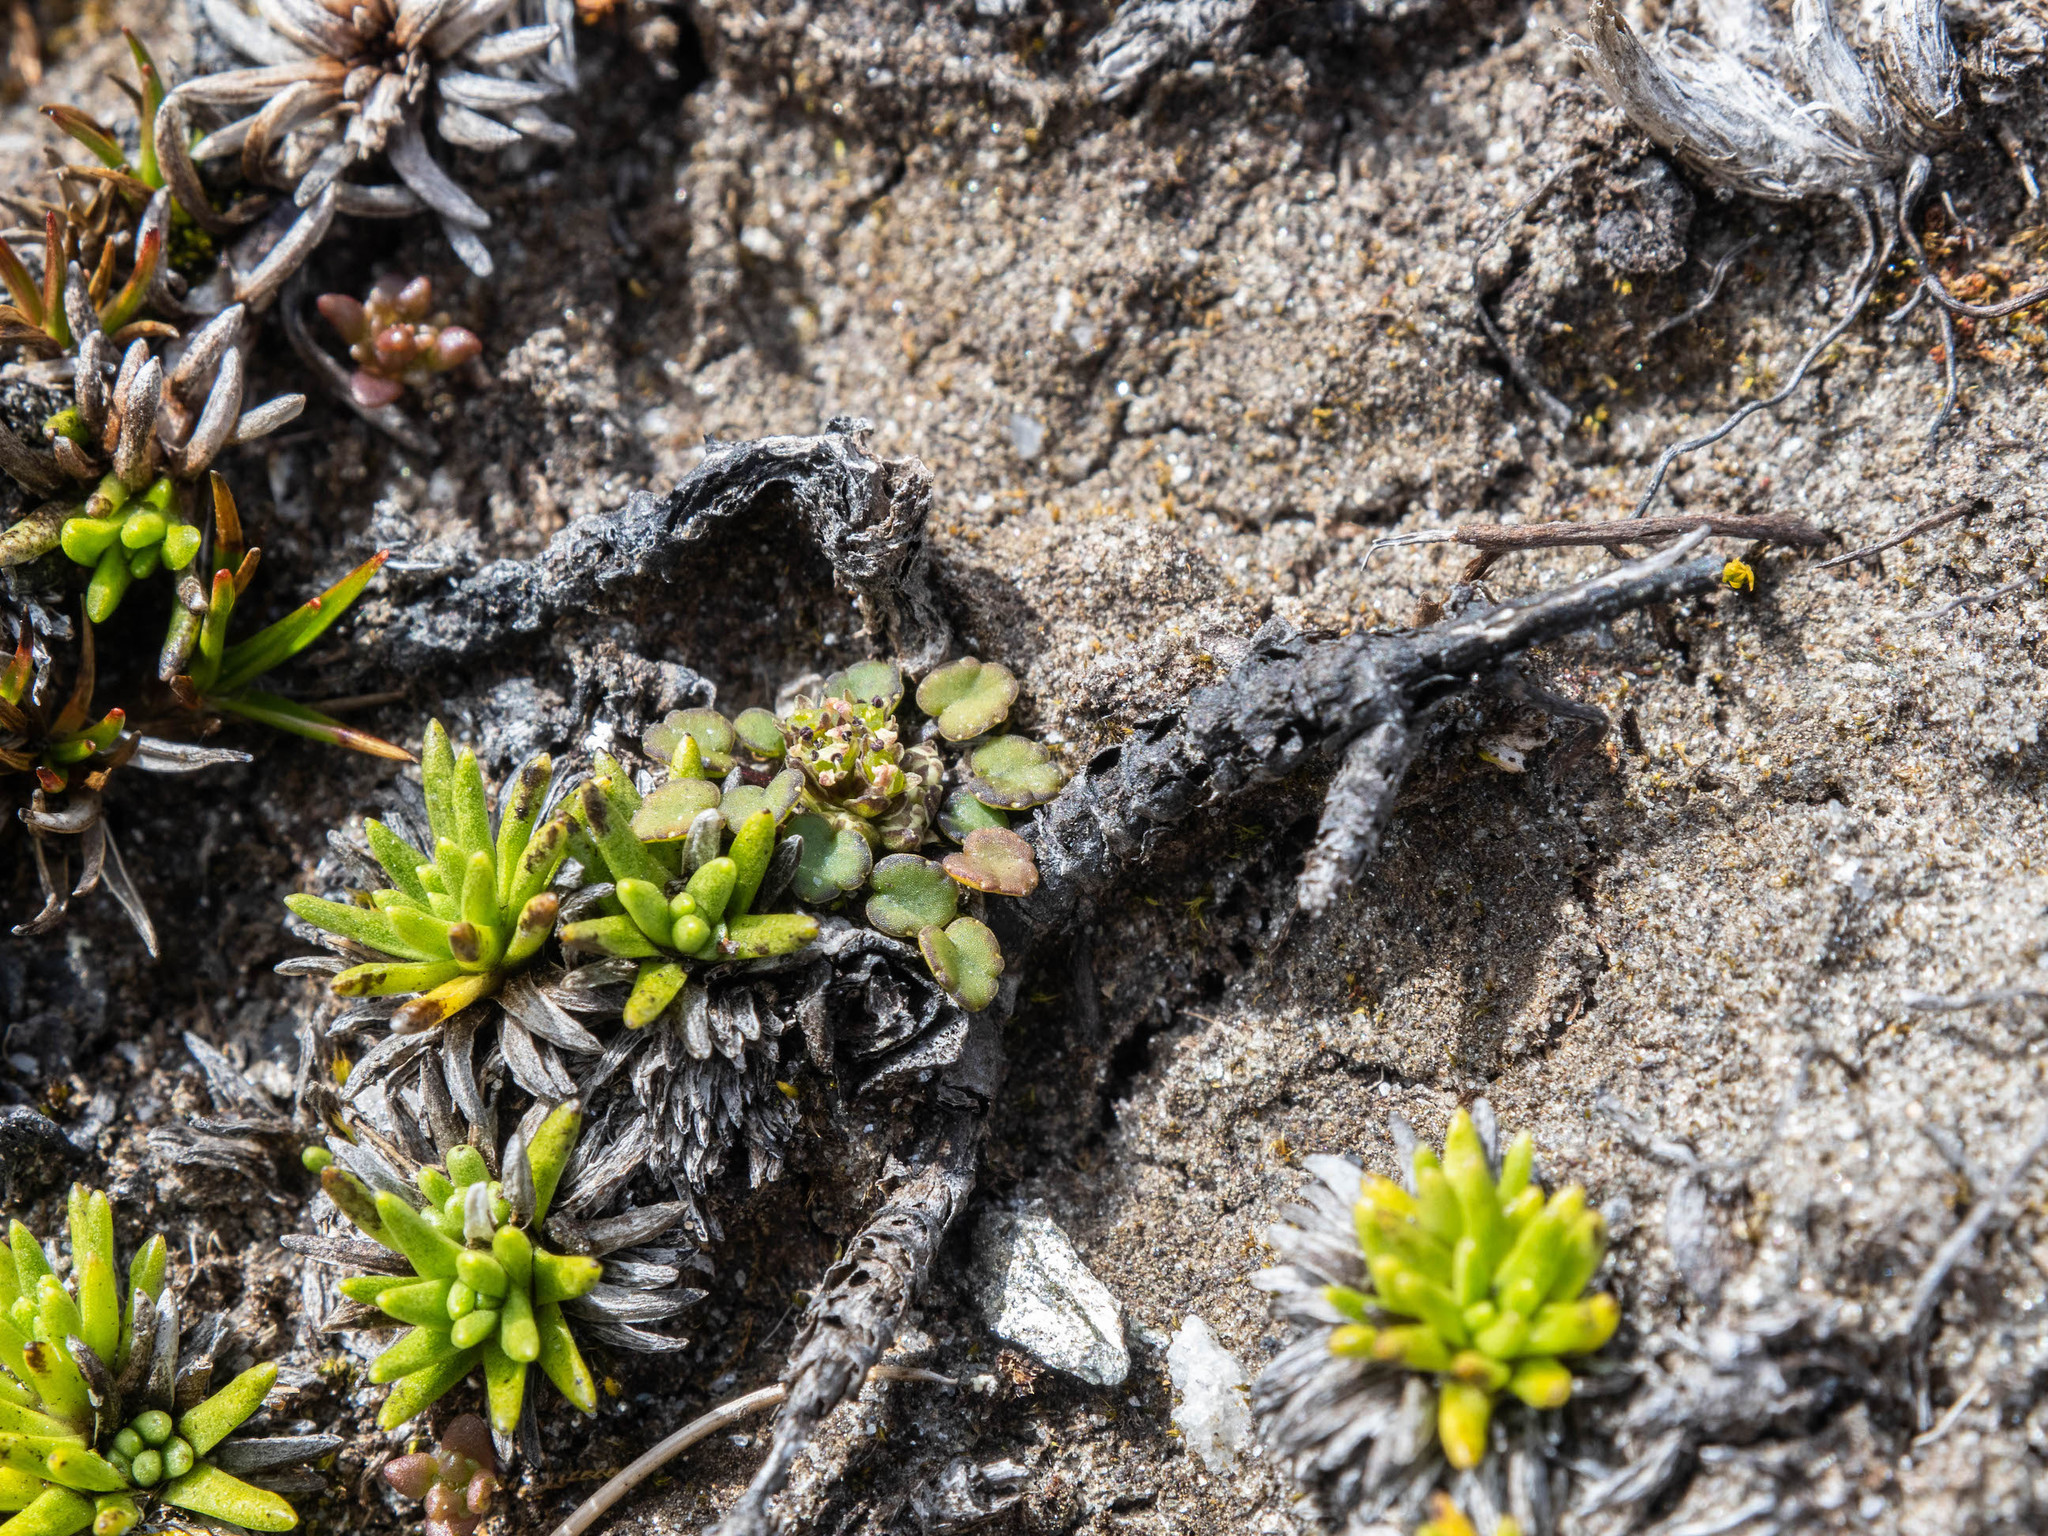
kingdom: Plantae
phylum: Tracheophyta
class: Magnoliopsida
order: Apiales
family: Apiaceae
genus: Azorella
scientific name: Azorella exigua
